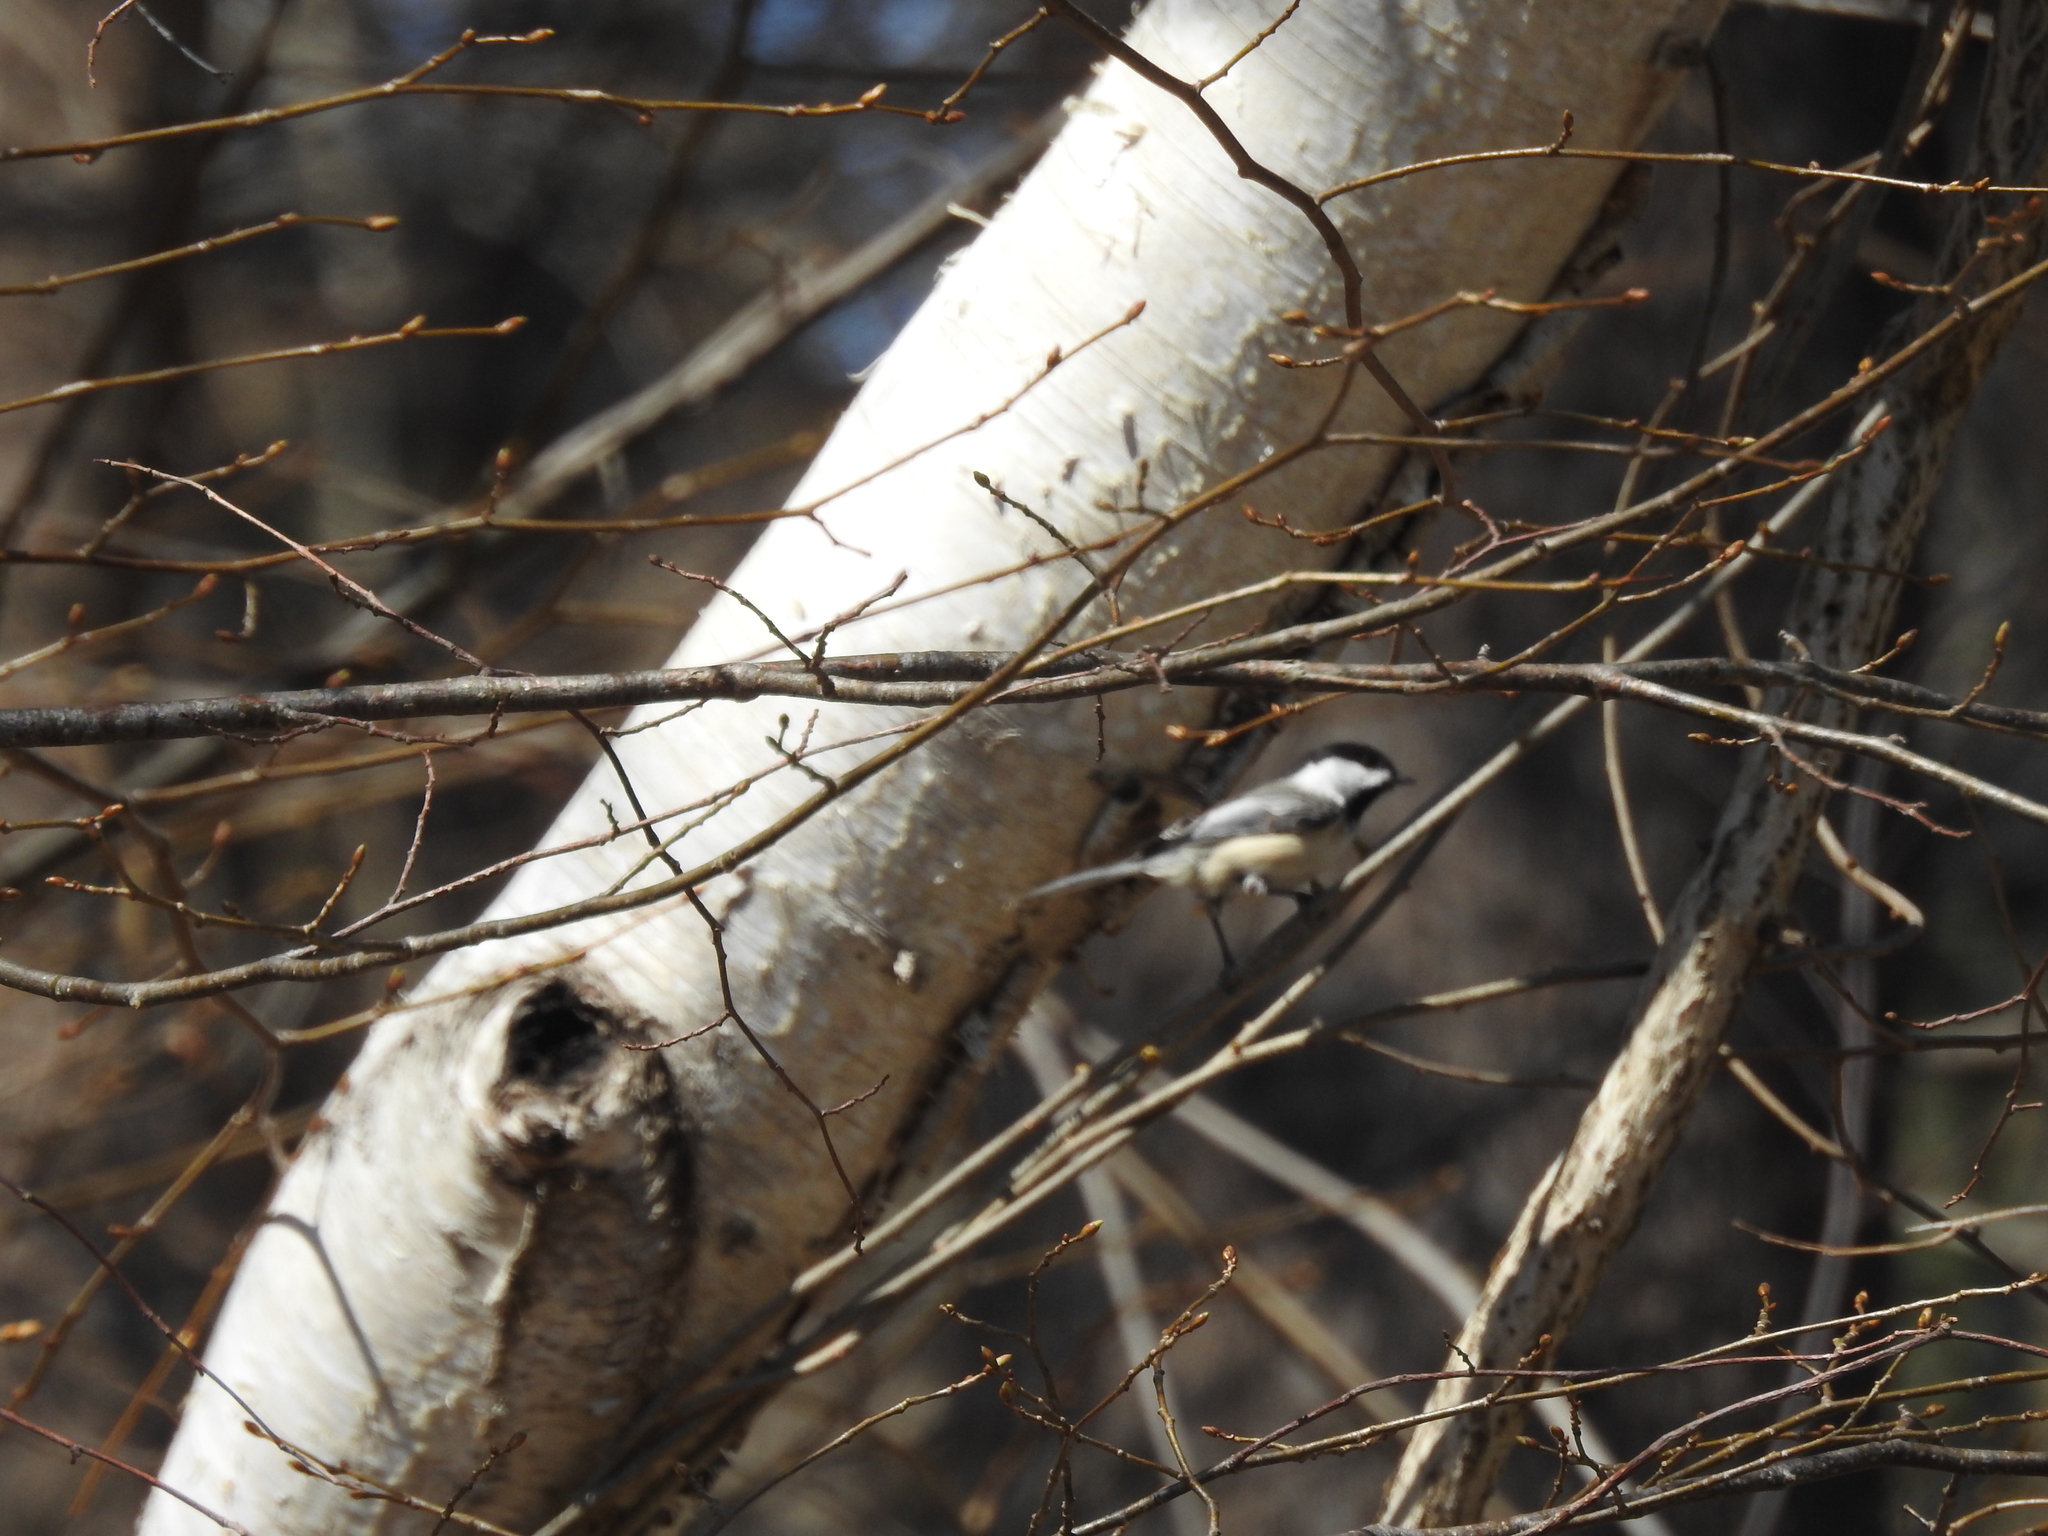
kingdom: Animalia
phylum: Chordata
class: Aves
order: Passeriformes
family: Paridae
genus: Poecile
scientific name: Poecile atricapillus
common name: Black-capped chickadee
